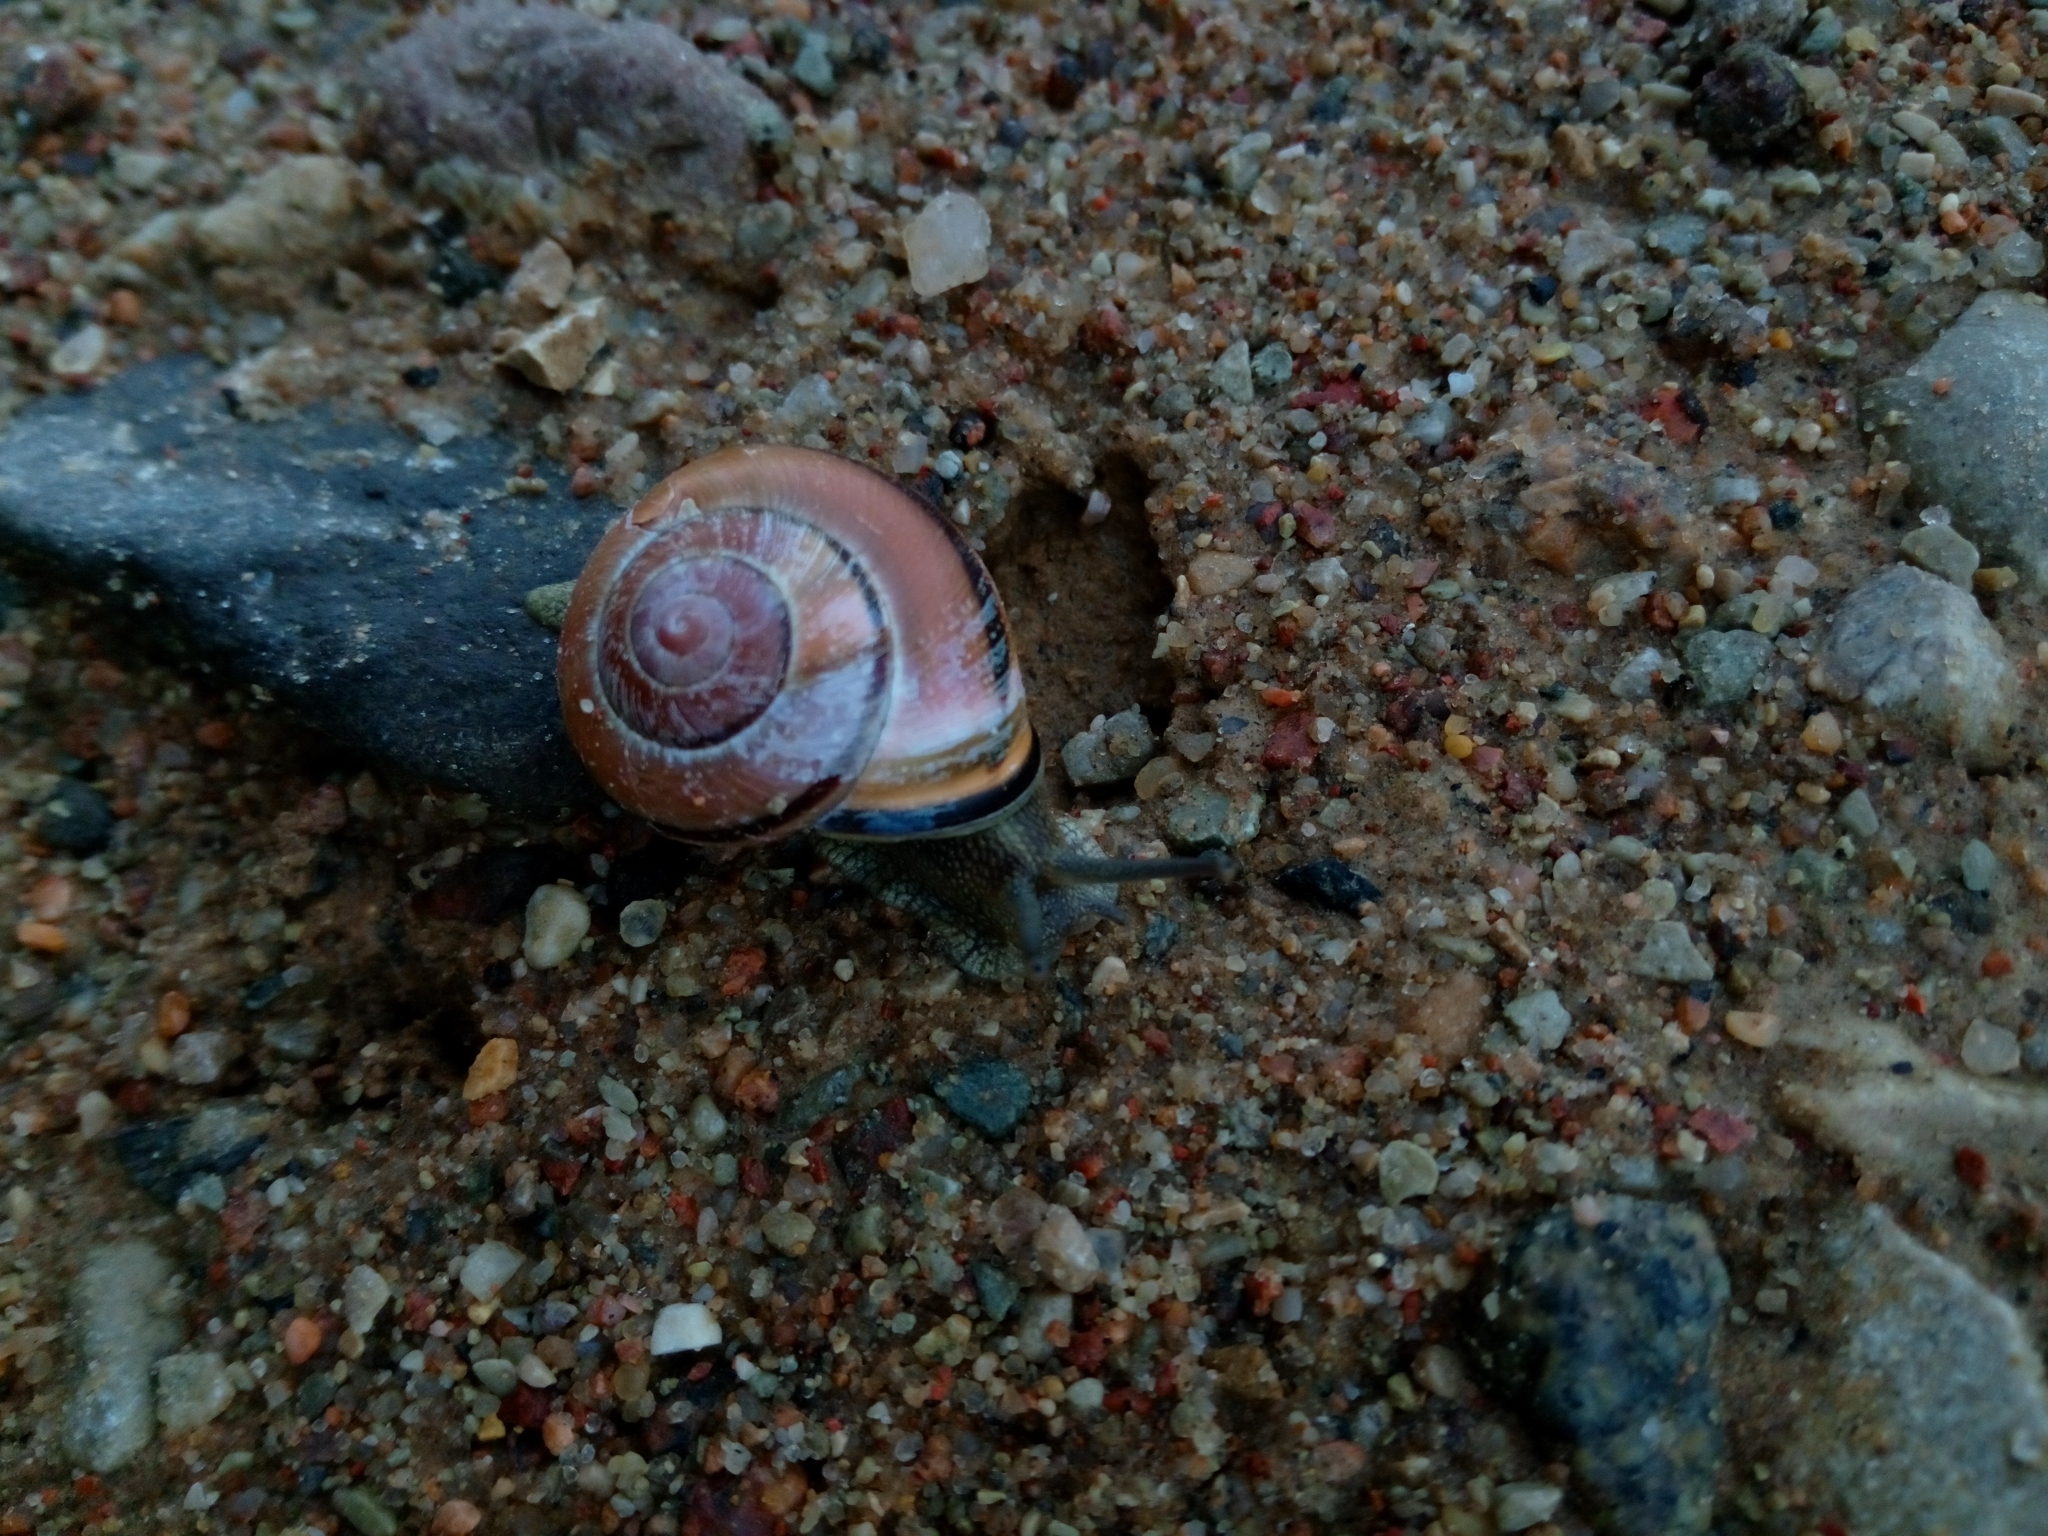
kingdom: Animalia
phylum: Mollusca
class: Gastropoda
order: Stylommatophora
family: Helicidae
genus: Cepaea
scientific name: Cepaea nemoralis
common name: Grovesnail
